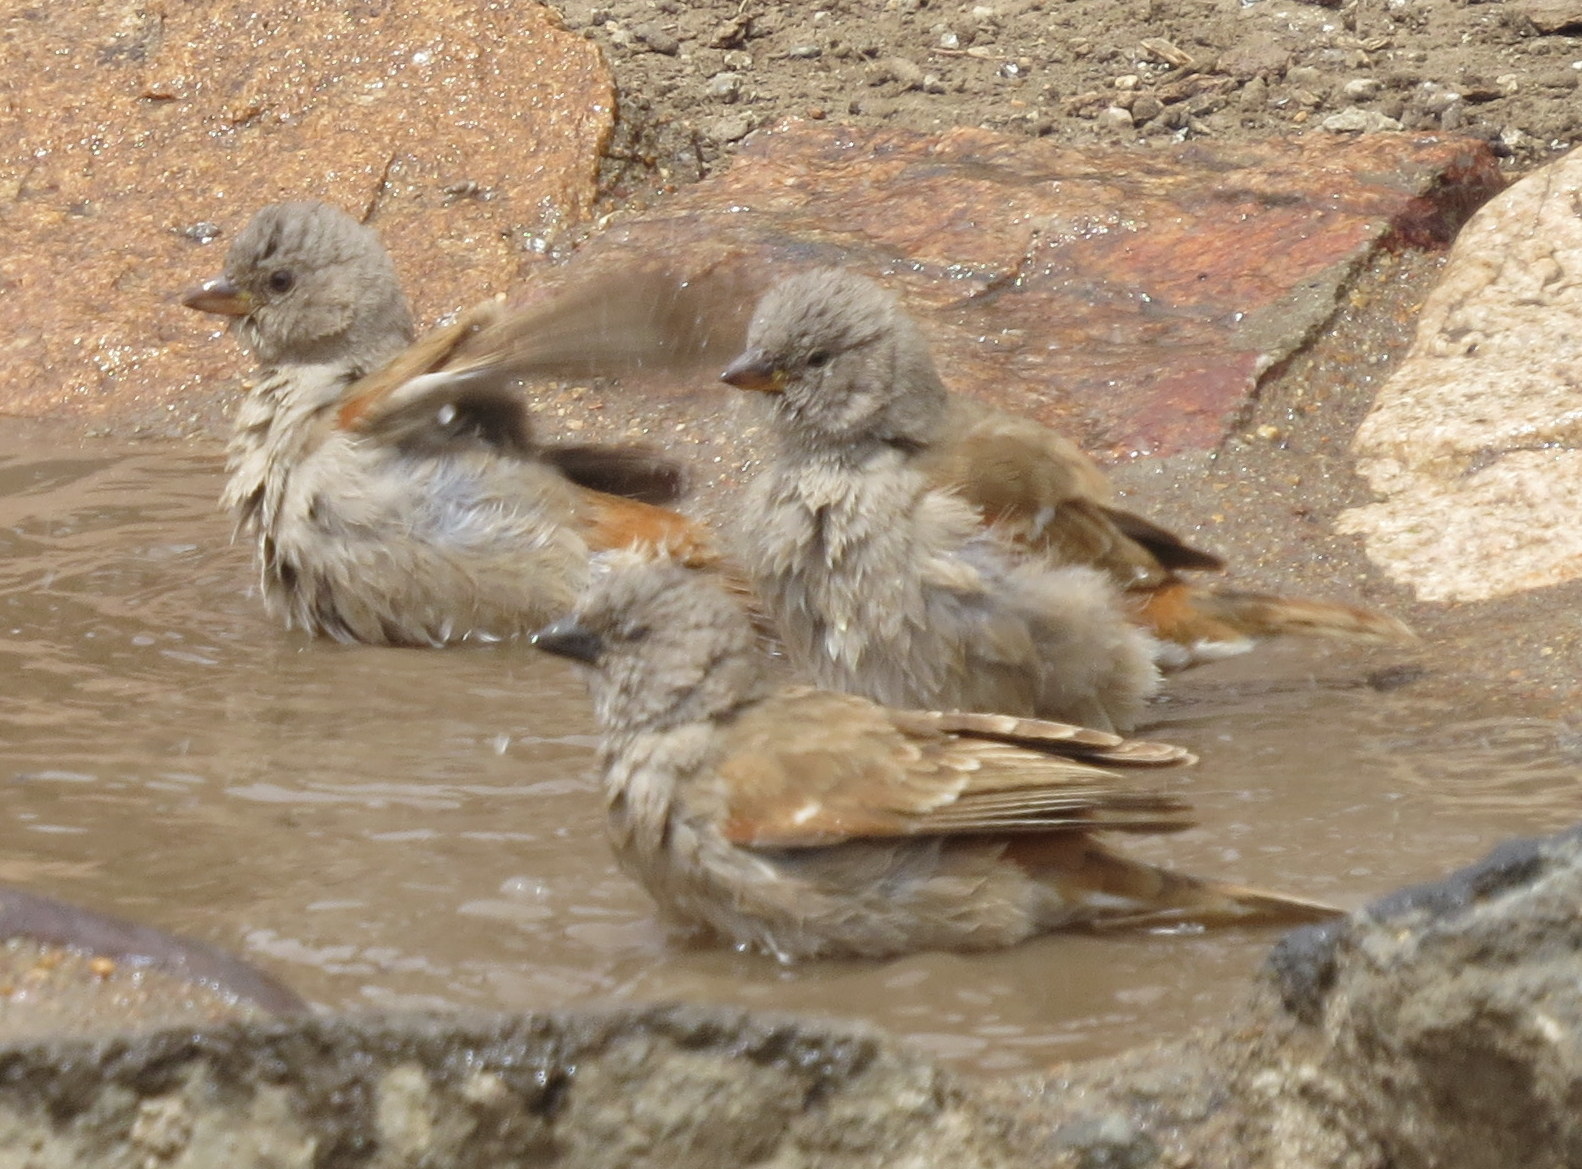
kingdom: Animalia
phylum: Chordata
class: Aves
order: Passeriformes
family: Passeridae
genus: Passer
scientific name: Passer griseus
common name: Northern grey-headed sparrow
